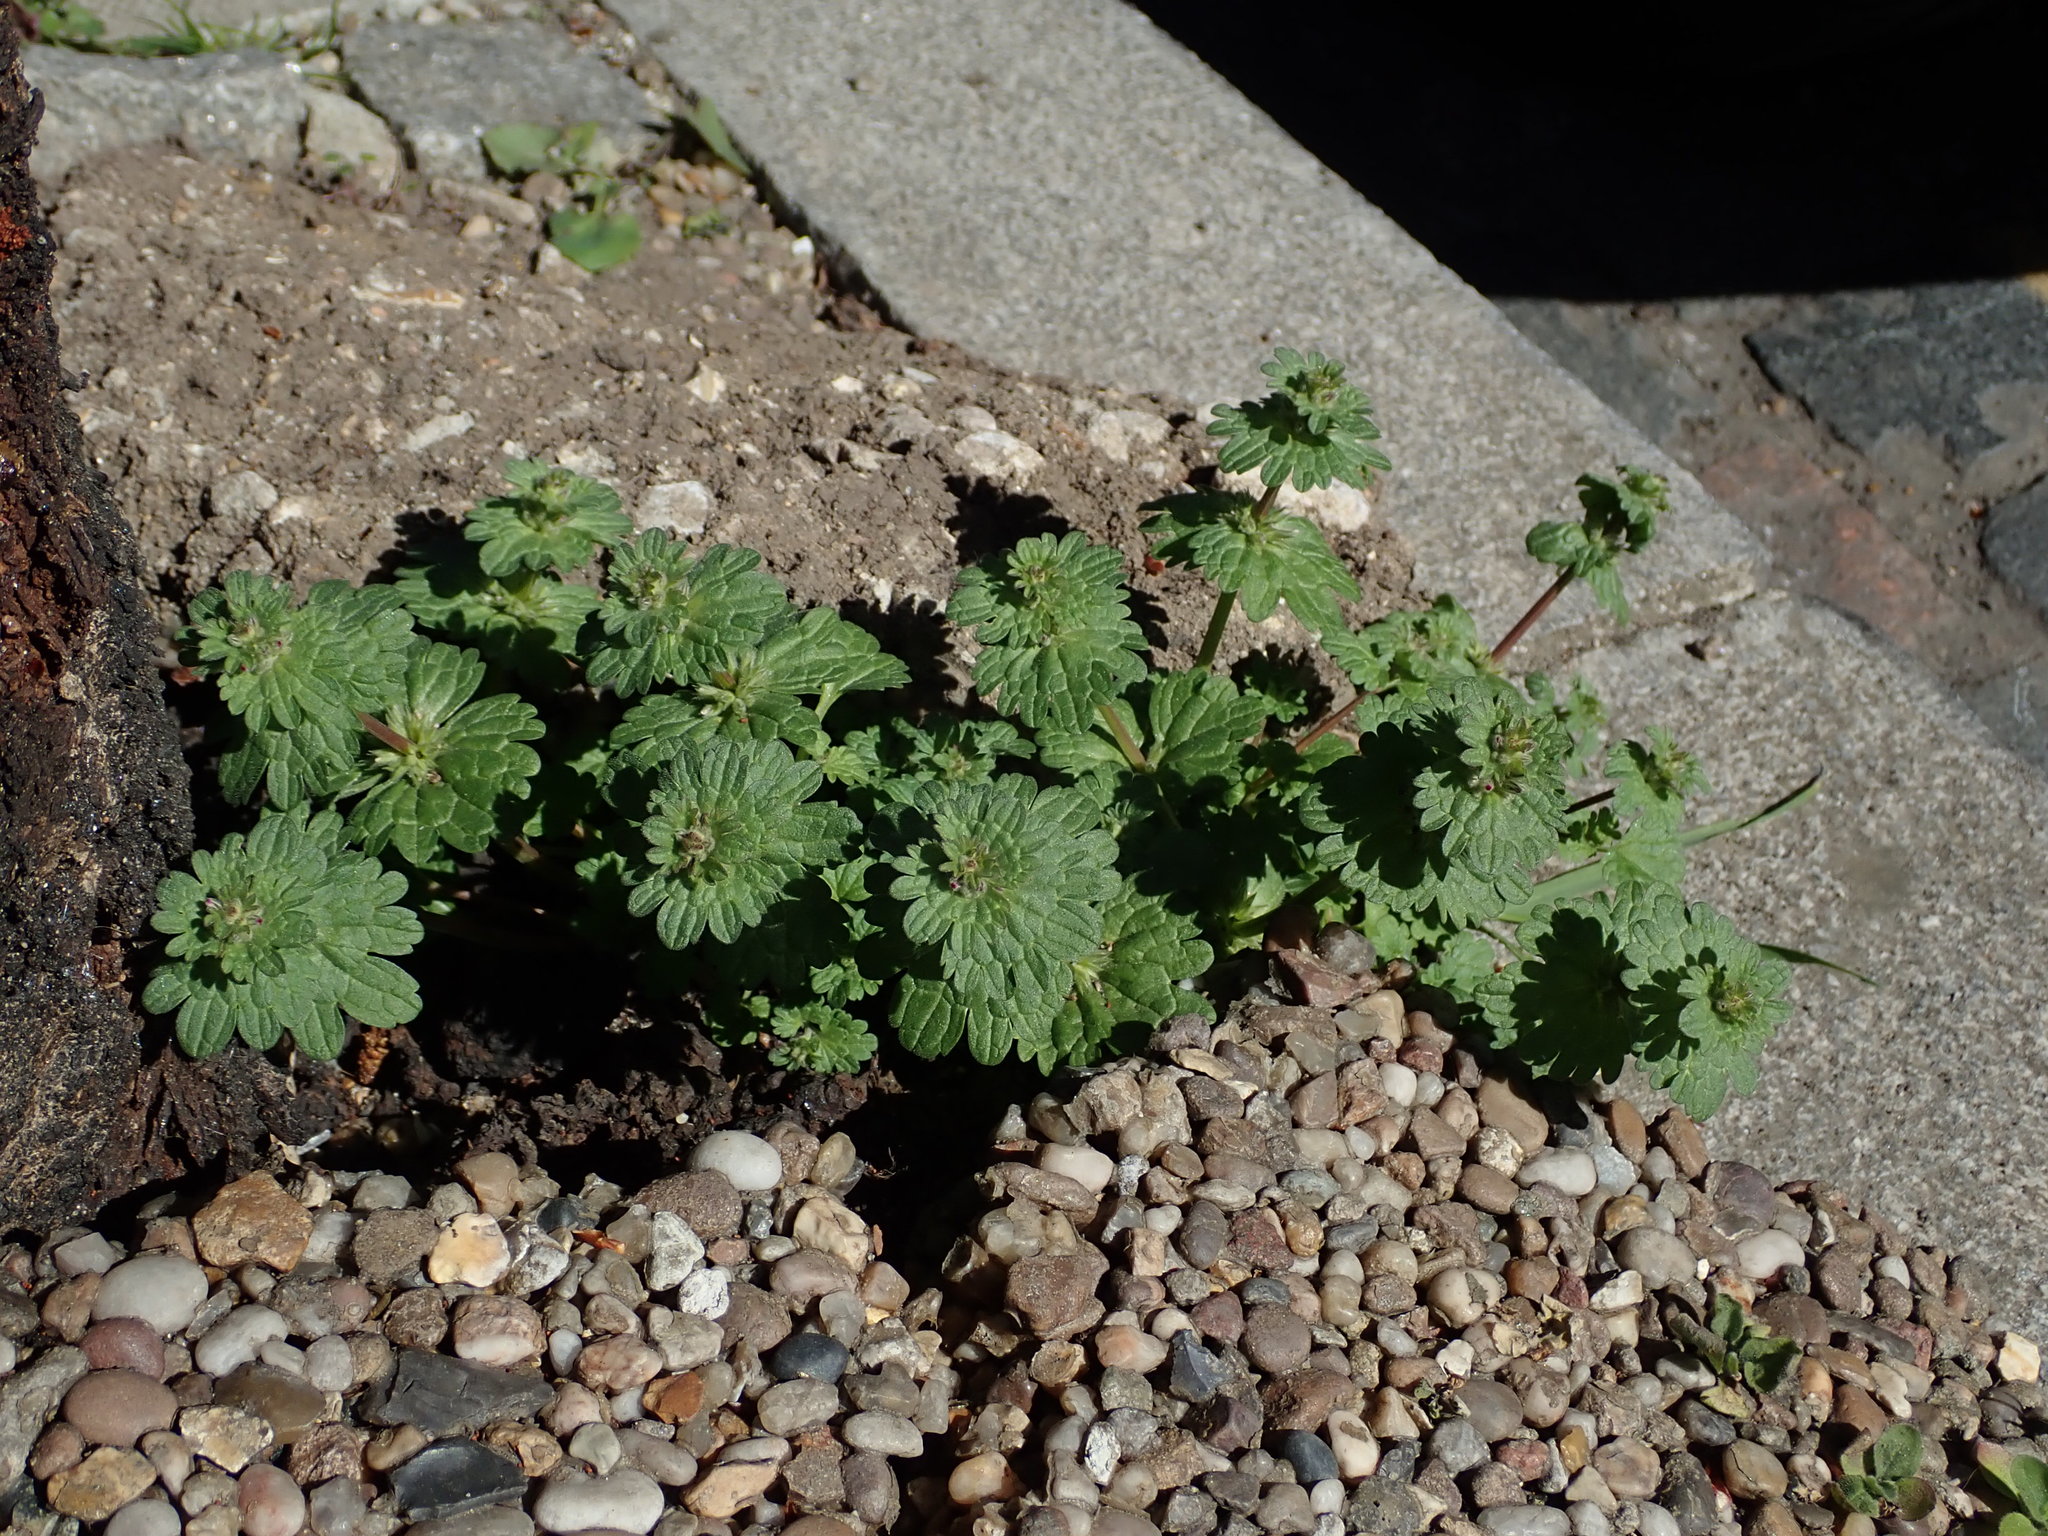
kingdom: Plantae
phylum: Tracheophyta
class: Magnoliopsida
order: Lamiales
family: Lamiaceae
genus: Lamium
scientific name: Lamium amplexicaule
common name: Henbit dead-nettle
